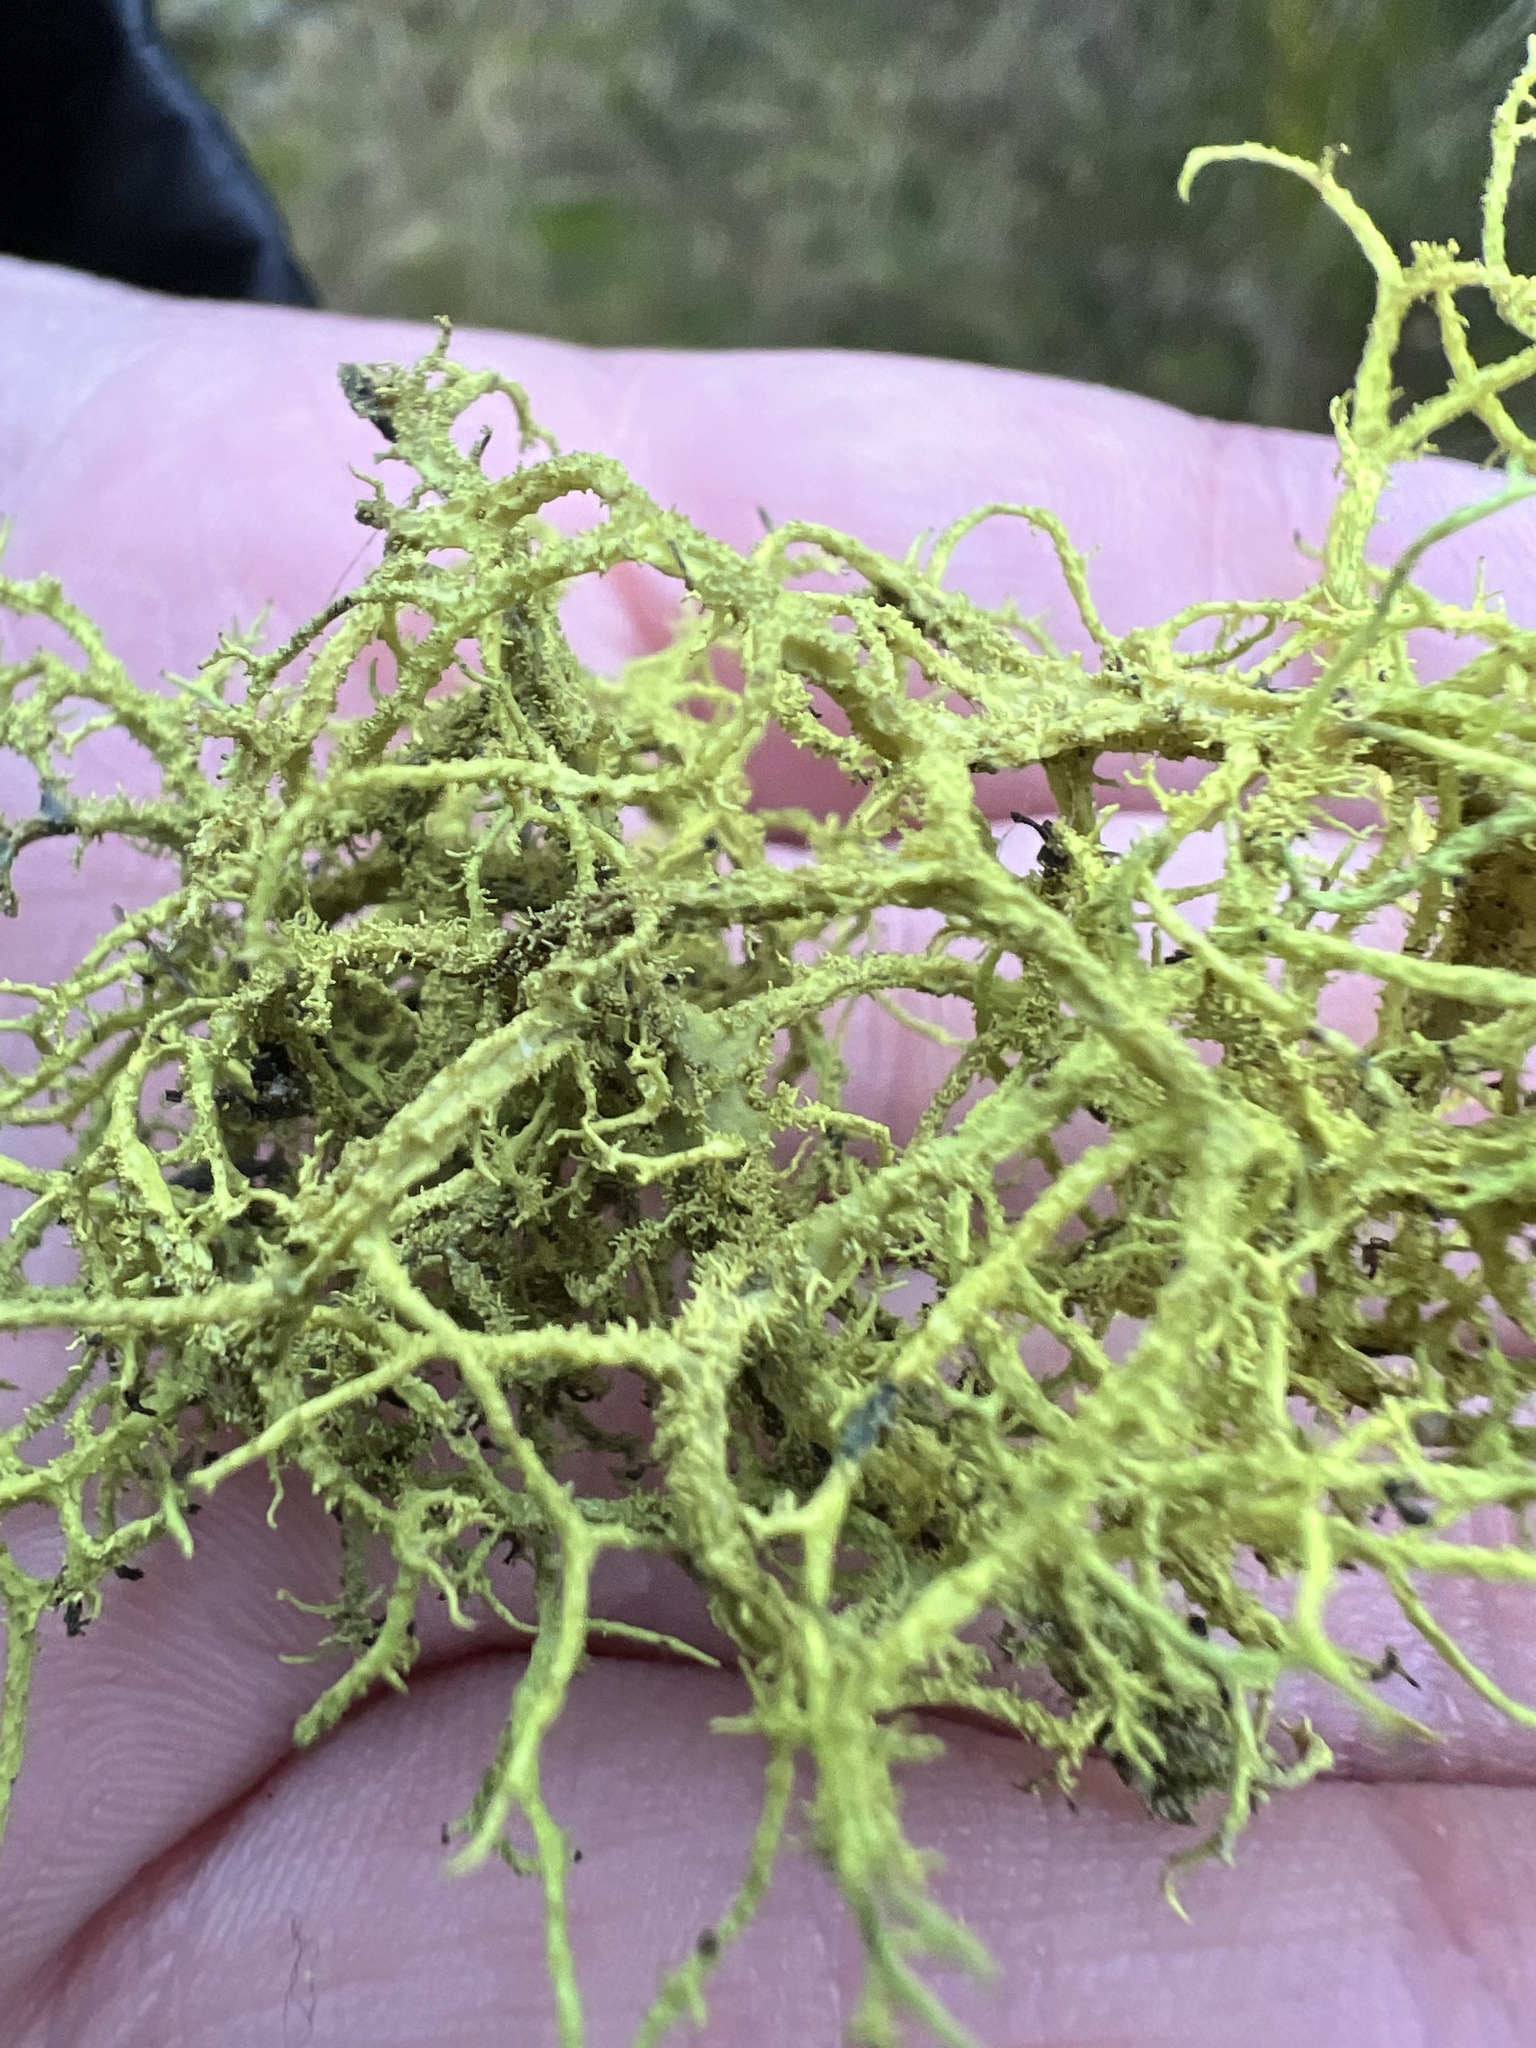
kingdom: Fungi
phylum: Ascomycota
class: Lecanoromycetes
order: Lecanorales
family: Parmeliaceae
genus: Letharia
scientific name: Letharia vulpina
